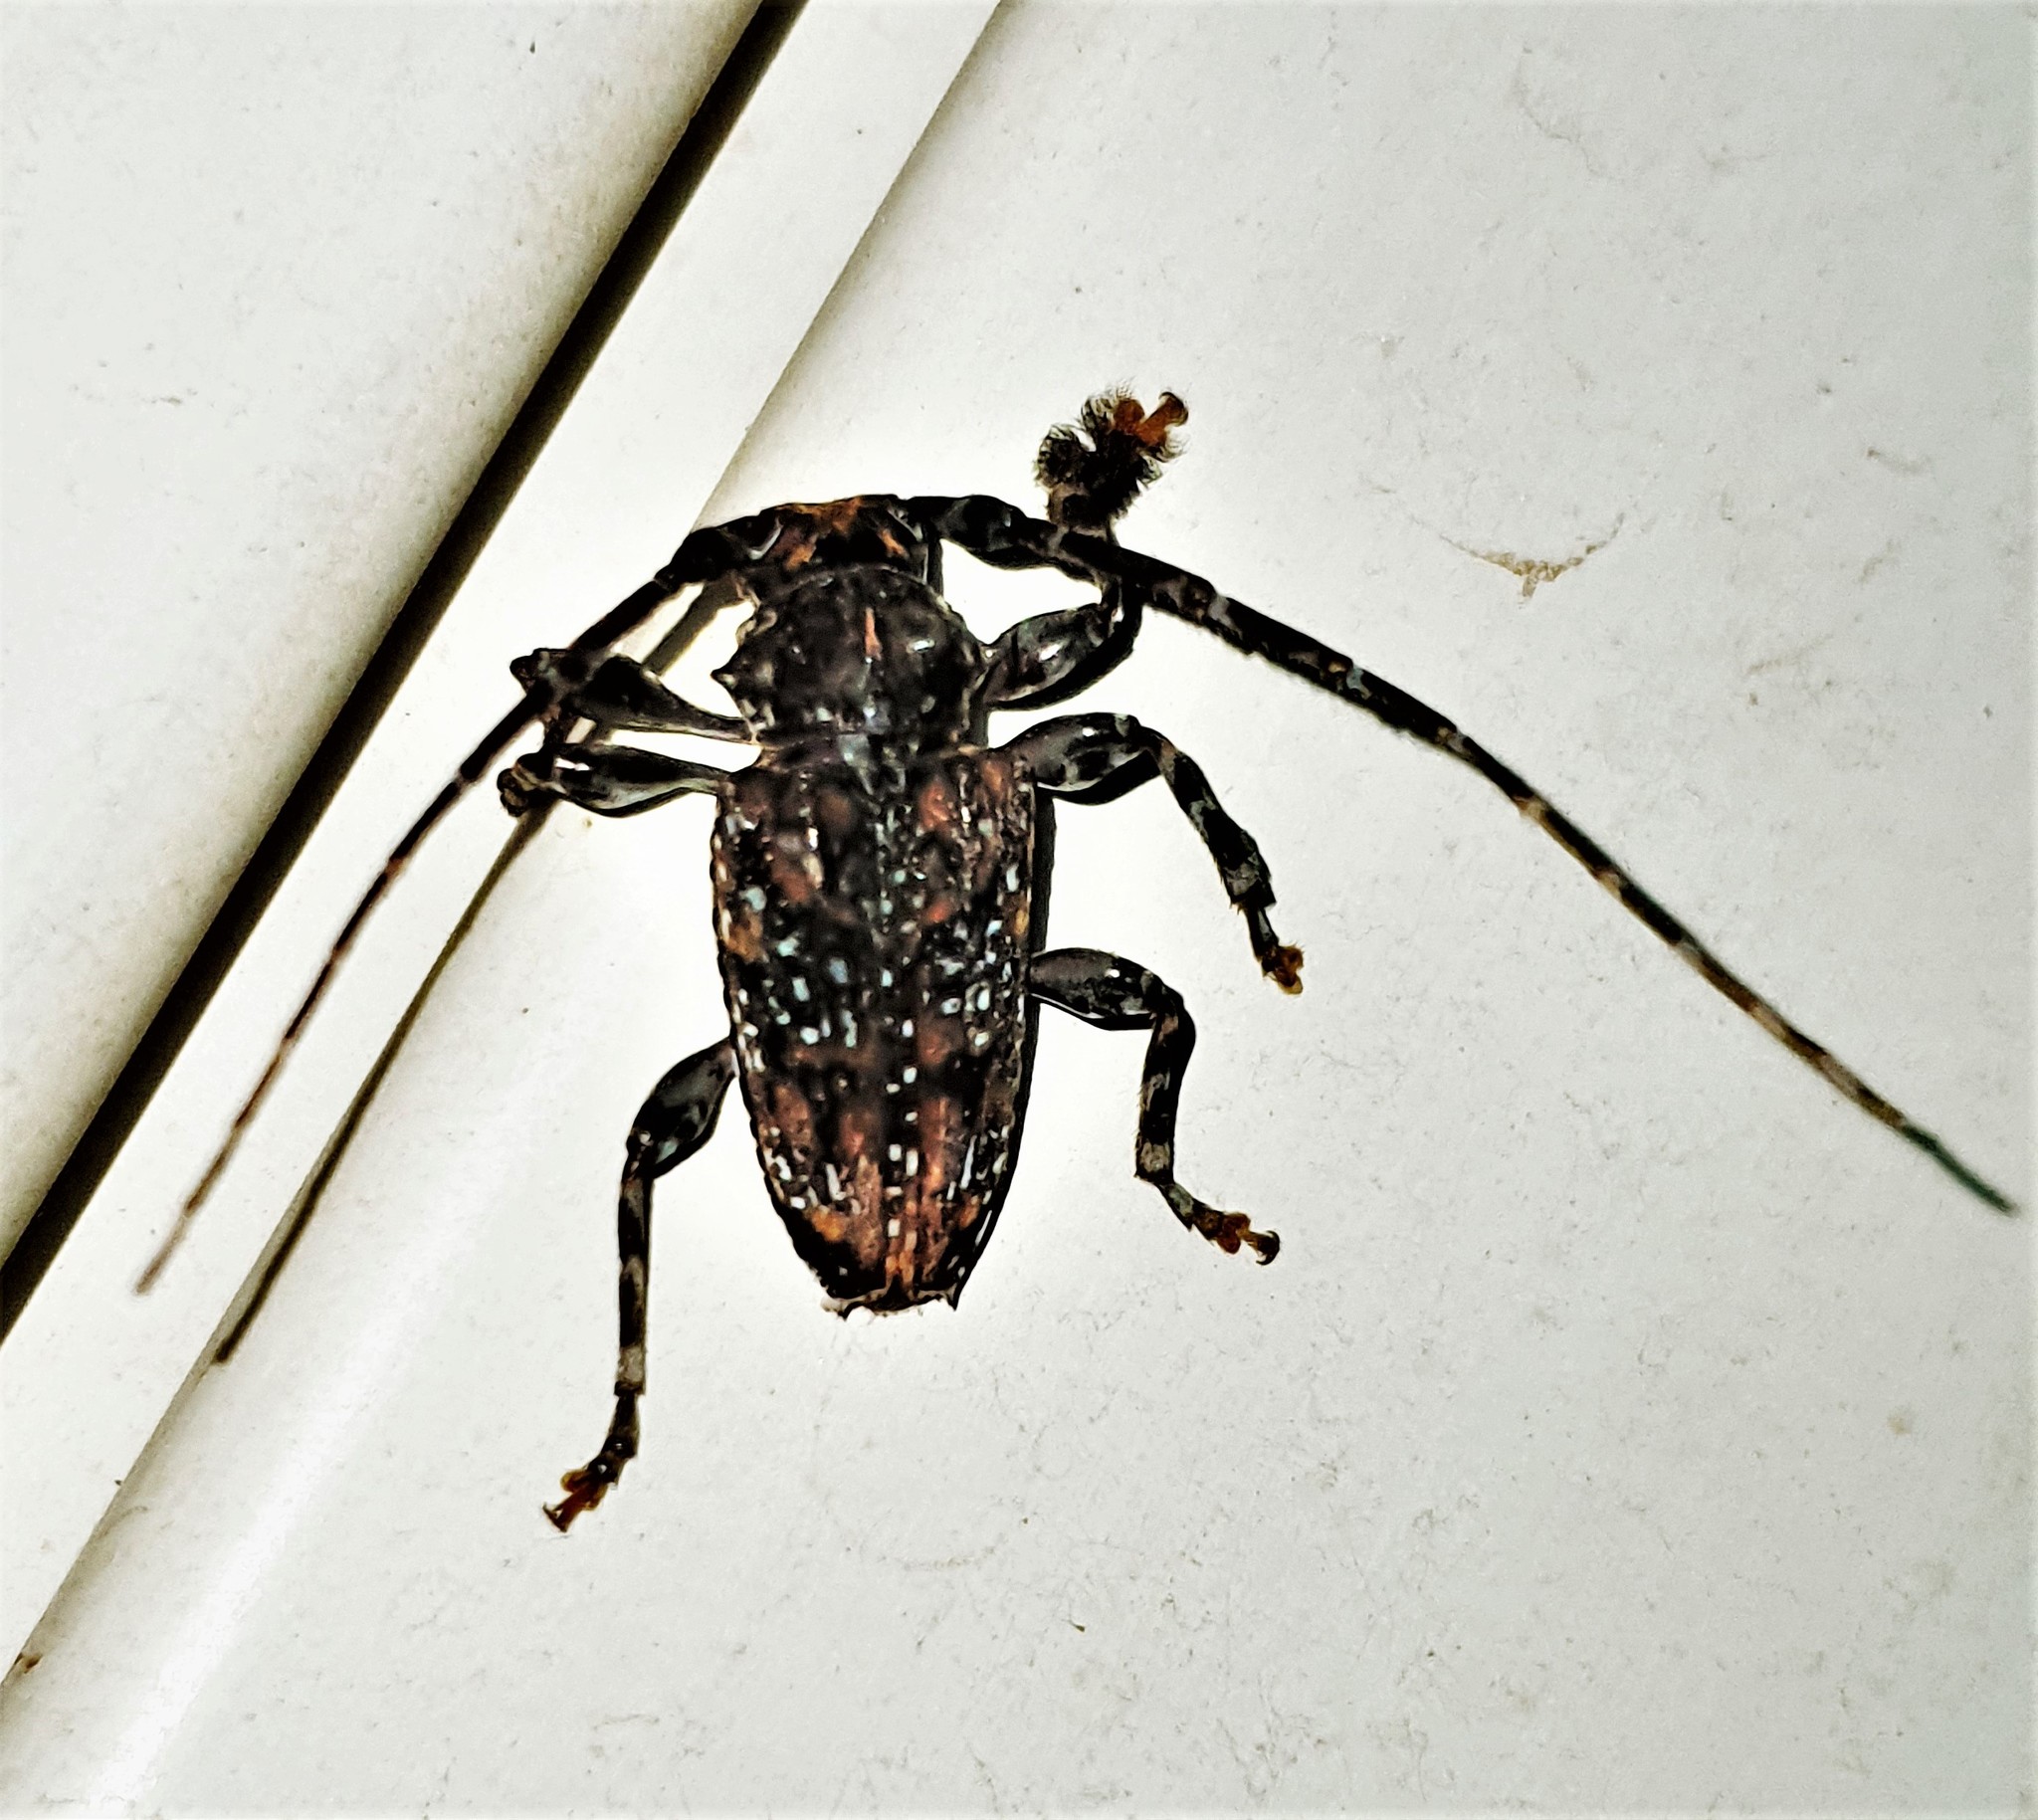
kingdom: Animalia
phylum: Arthropoda
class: Insecta
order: Coleoptera
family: Cerambycidae
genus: Psapharochrus
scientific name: Psapharochrus pantherinus
